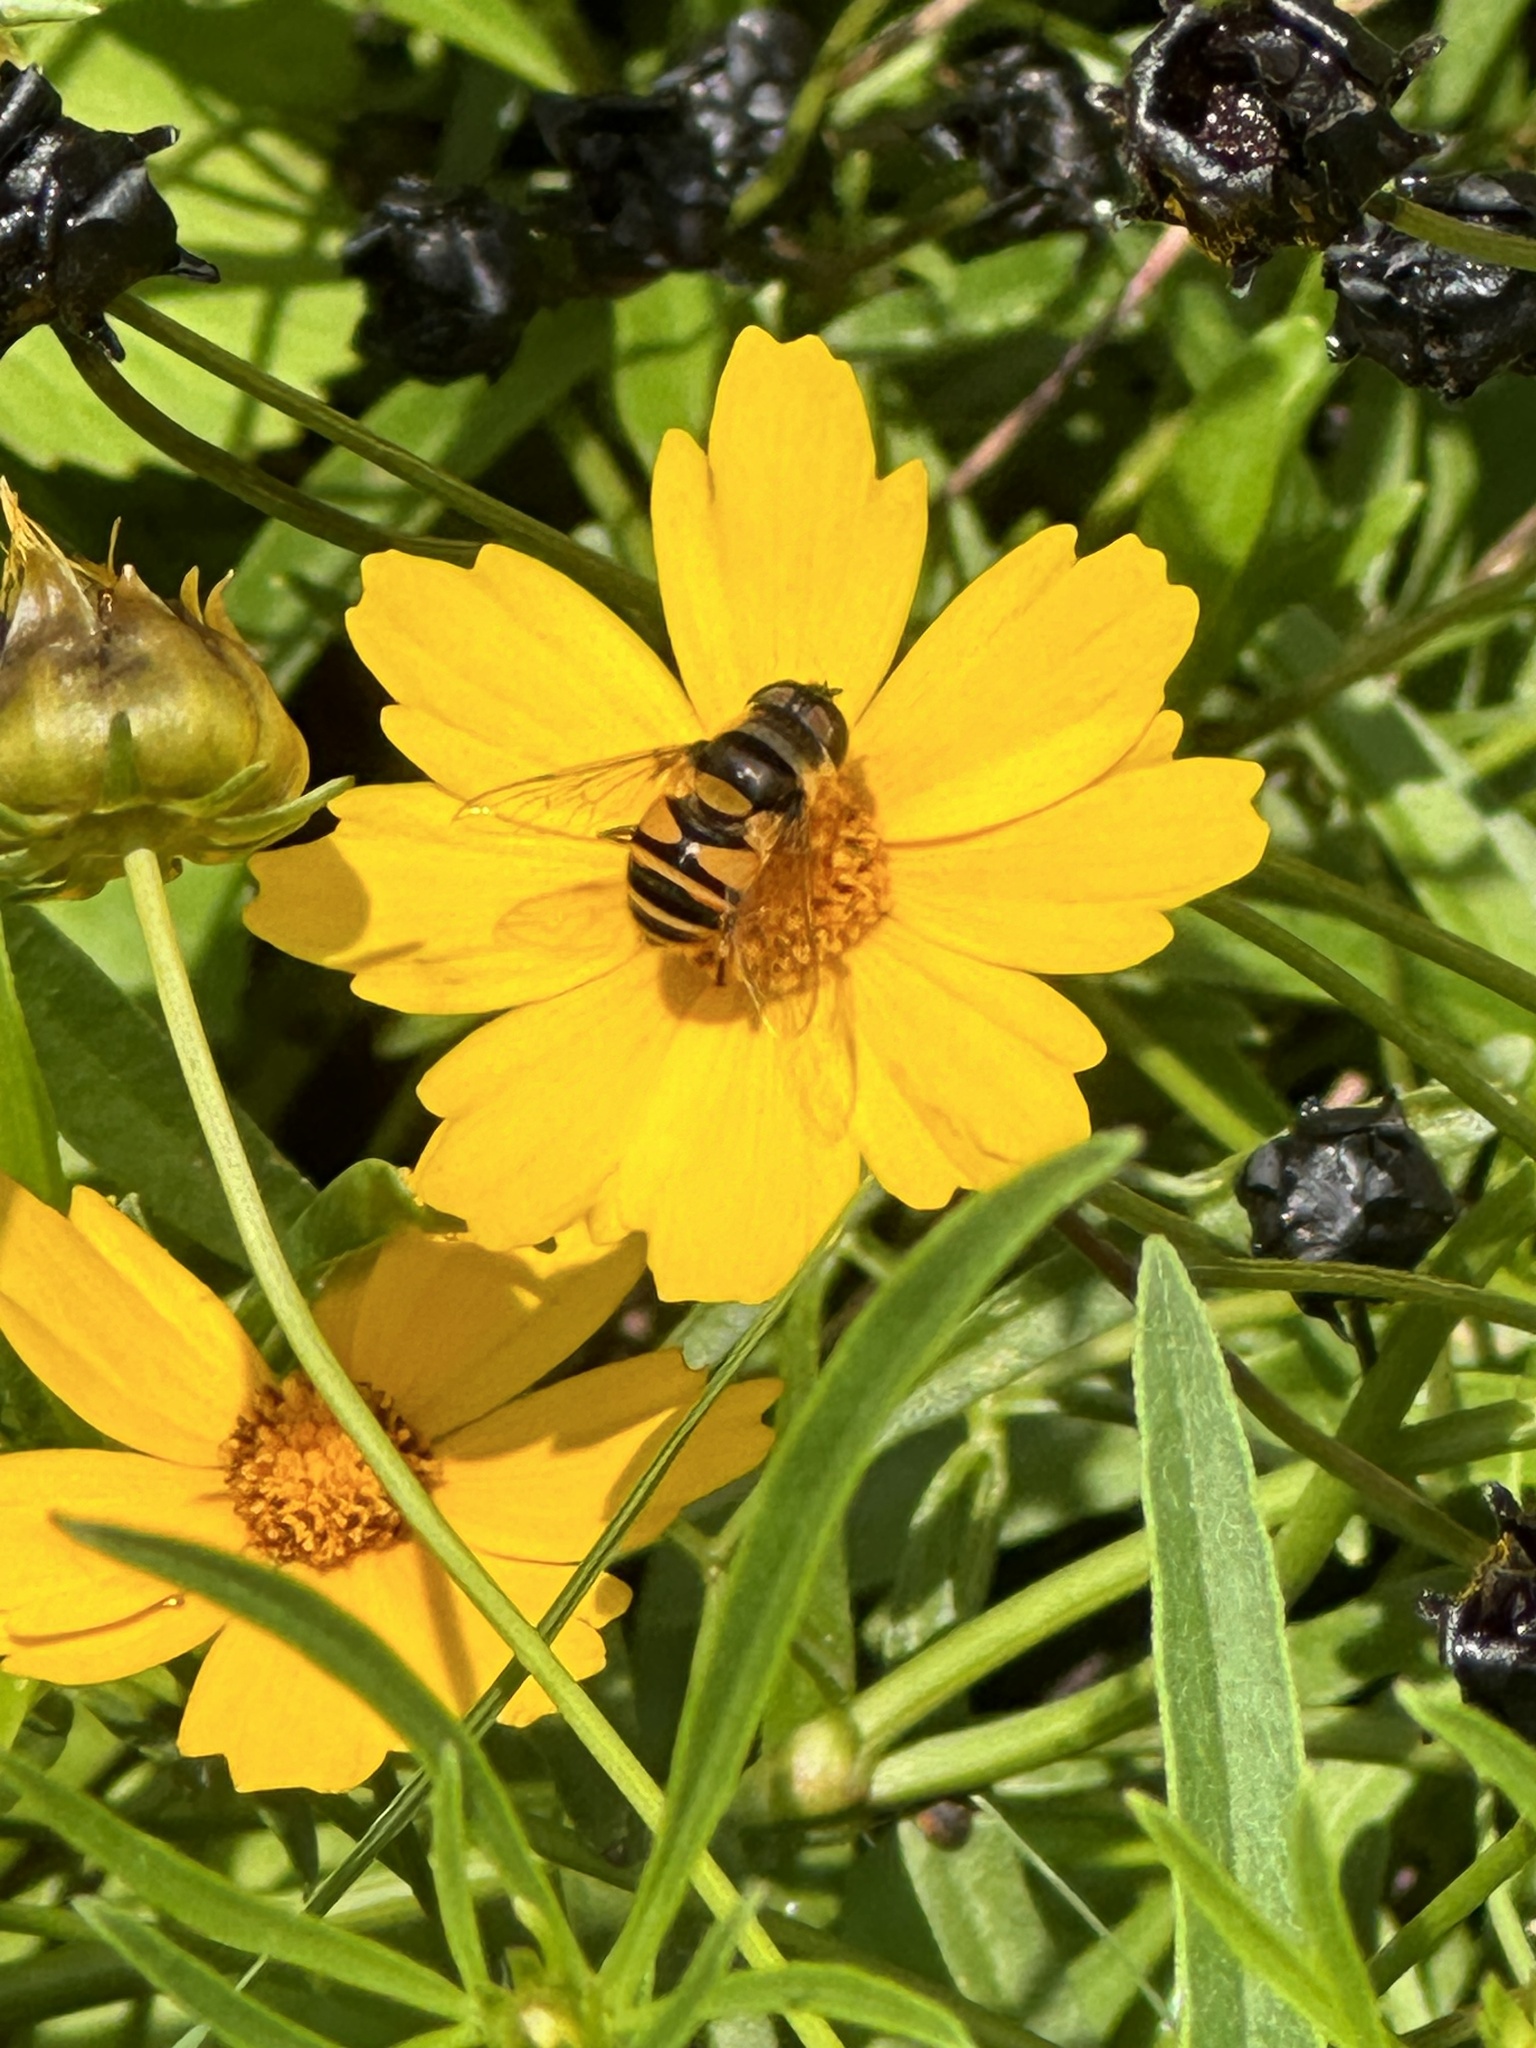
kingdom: Animalia
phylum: Arthropoda
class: Insecta
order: Diptera
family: Syrphidae
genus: Eristalis
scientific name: Eristalis transversa
